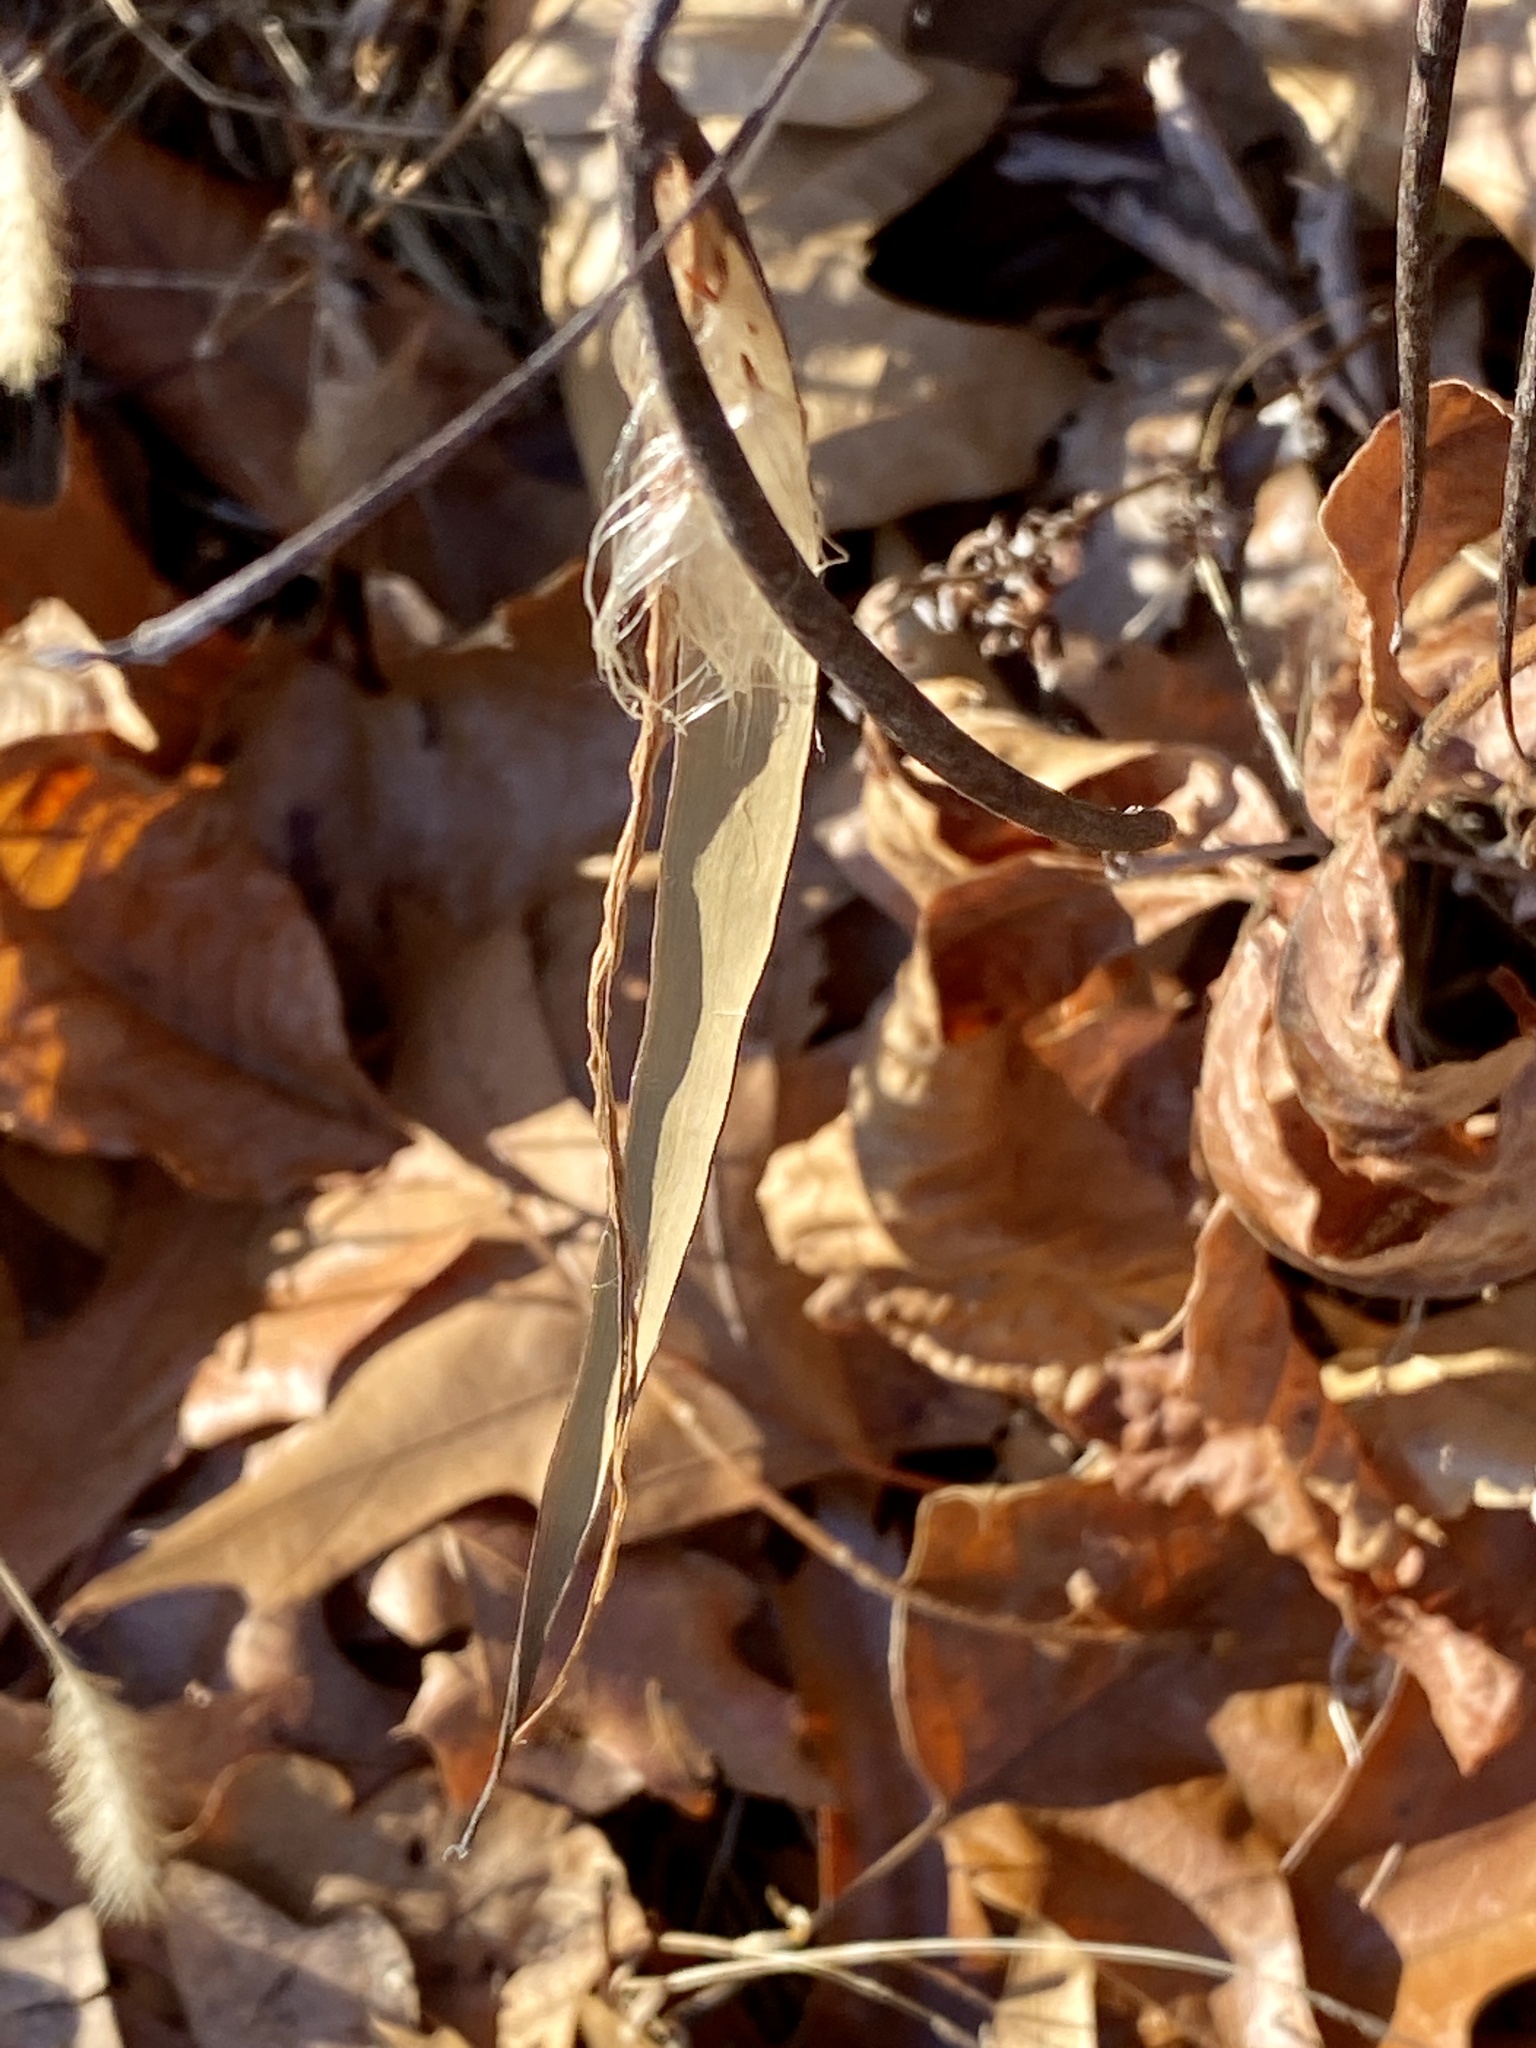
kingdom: Plantae
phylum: Tracheophyta
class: Magnoliopsida
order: Gentianales
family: Apocynaceae
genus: Apocynum
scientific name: Apocynum cannabinum
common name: Hemp dogbane
